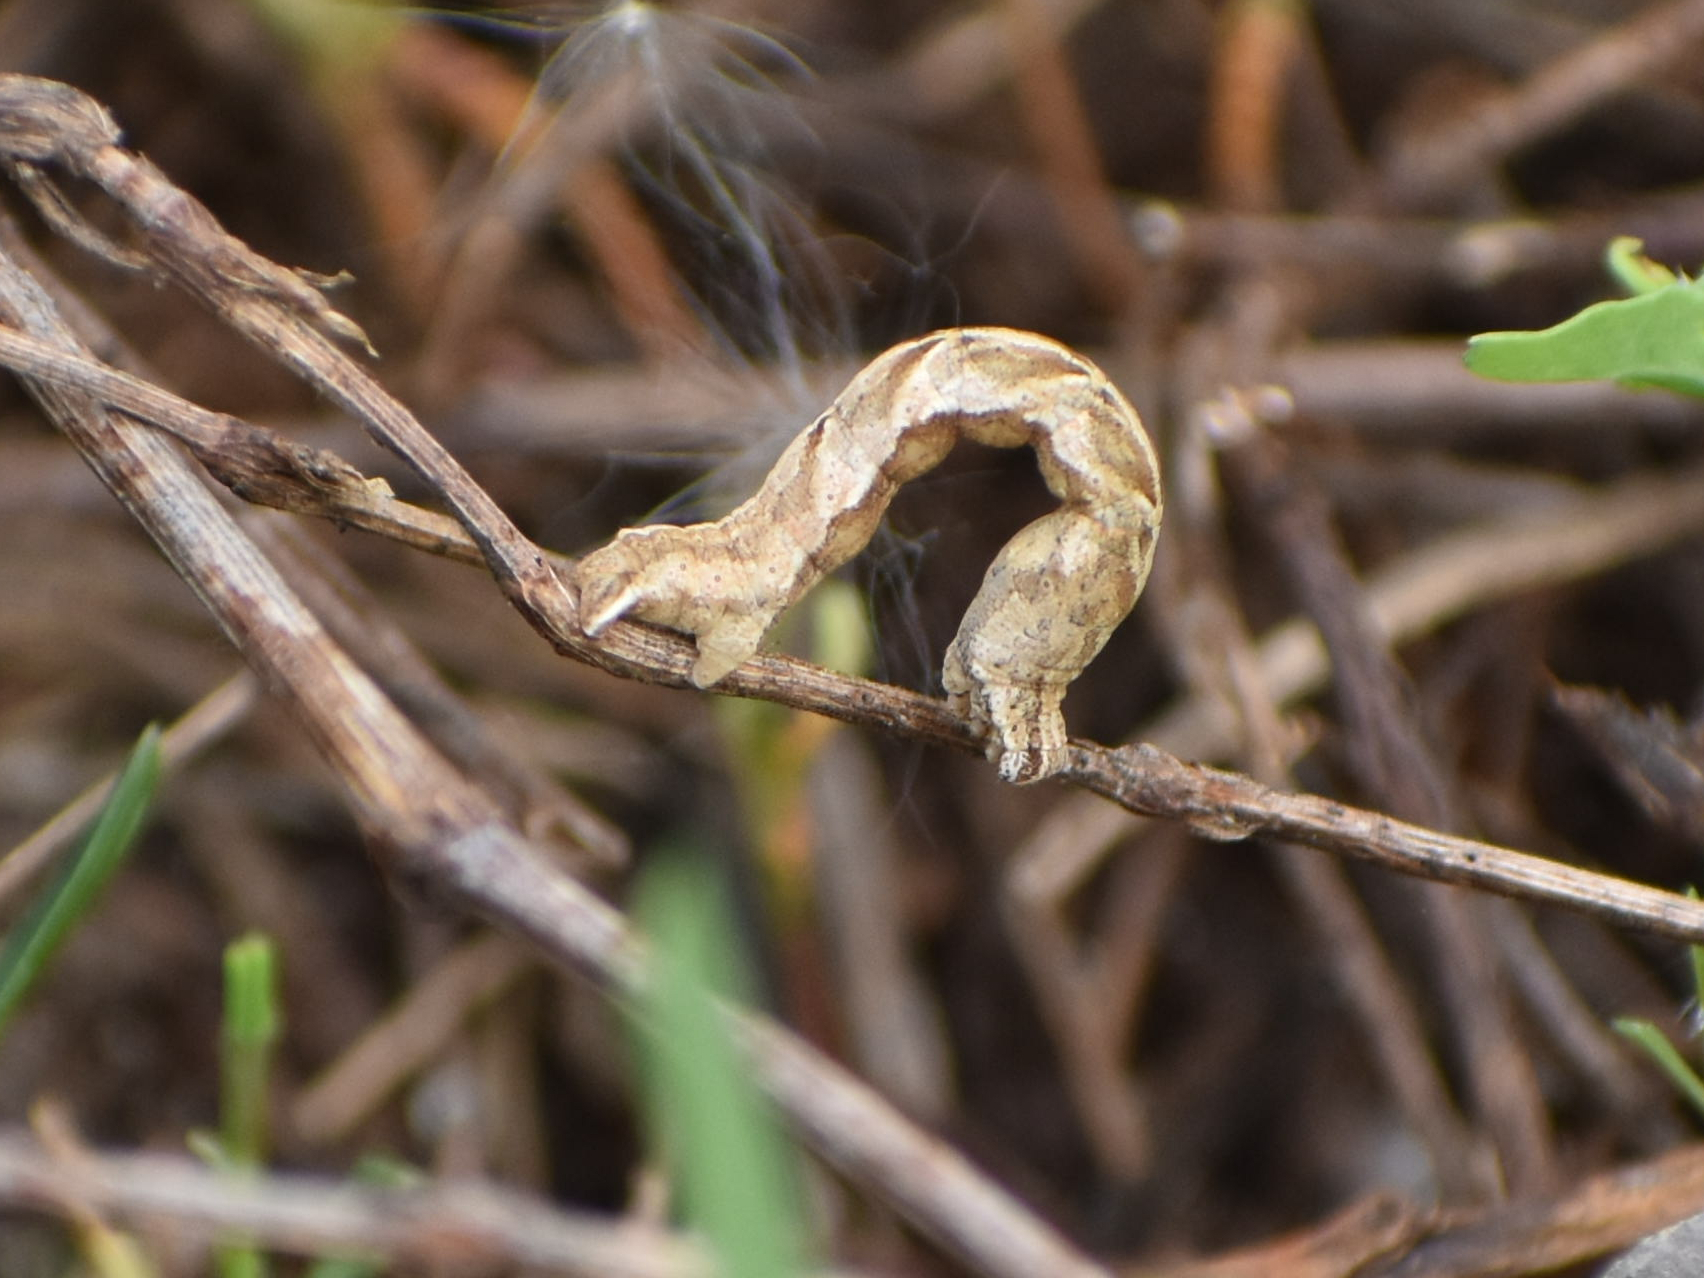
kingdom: Animalia
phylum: Arthropoda
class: Insecta
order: Lepidoptera
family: Geometridae
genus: Timandra
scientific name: Timandra comae
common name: Blood-vein
